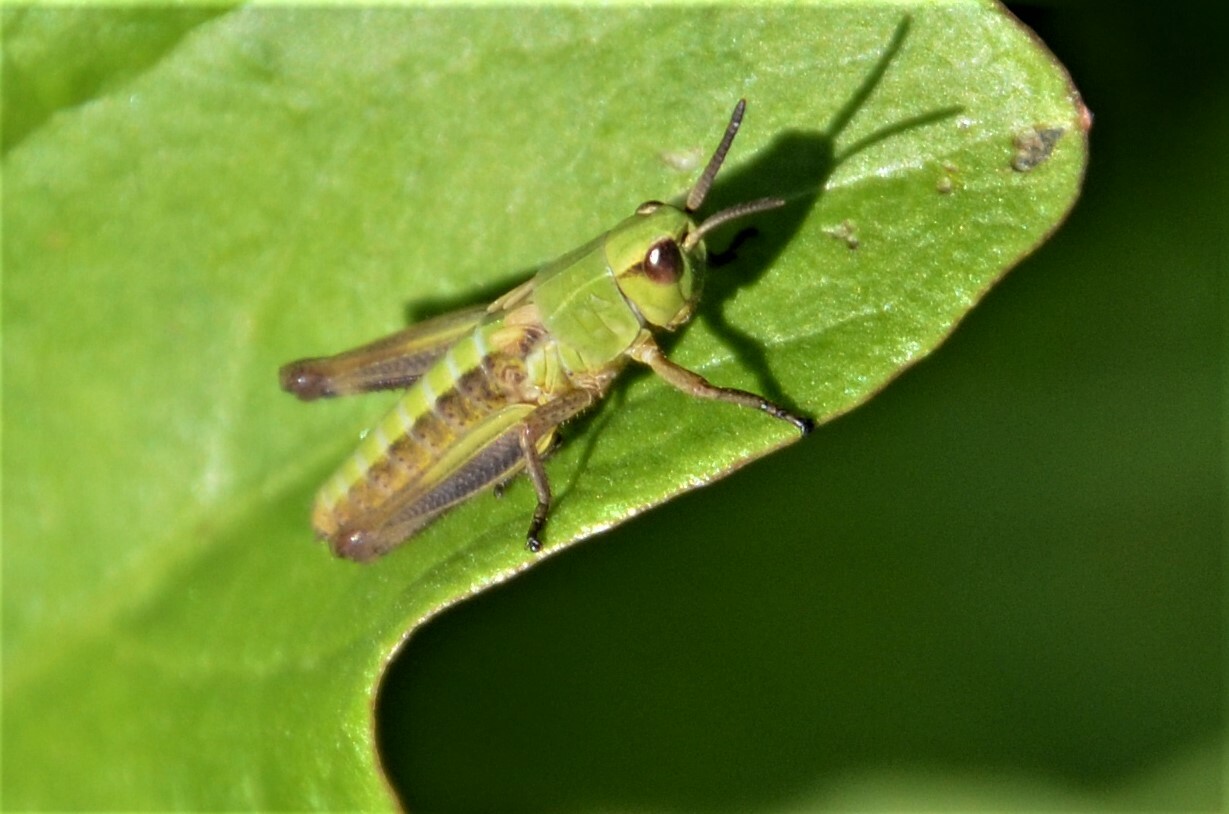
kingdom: Animalia
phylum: Arthropoda
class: Insecta
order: Orthoptera
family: Acrididae
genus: Pseudochorthippus
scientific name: Pseudochorthippus parallelus
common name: Meadow grasshopper
